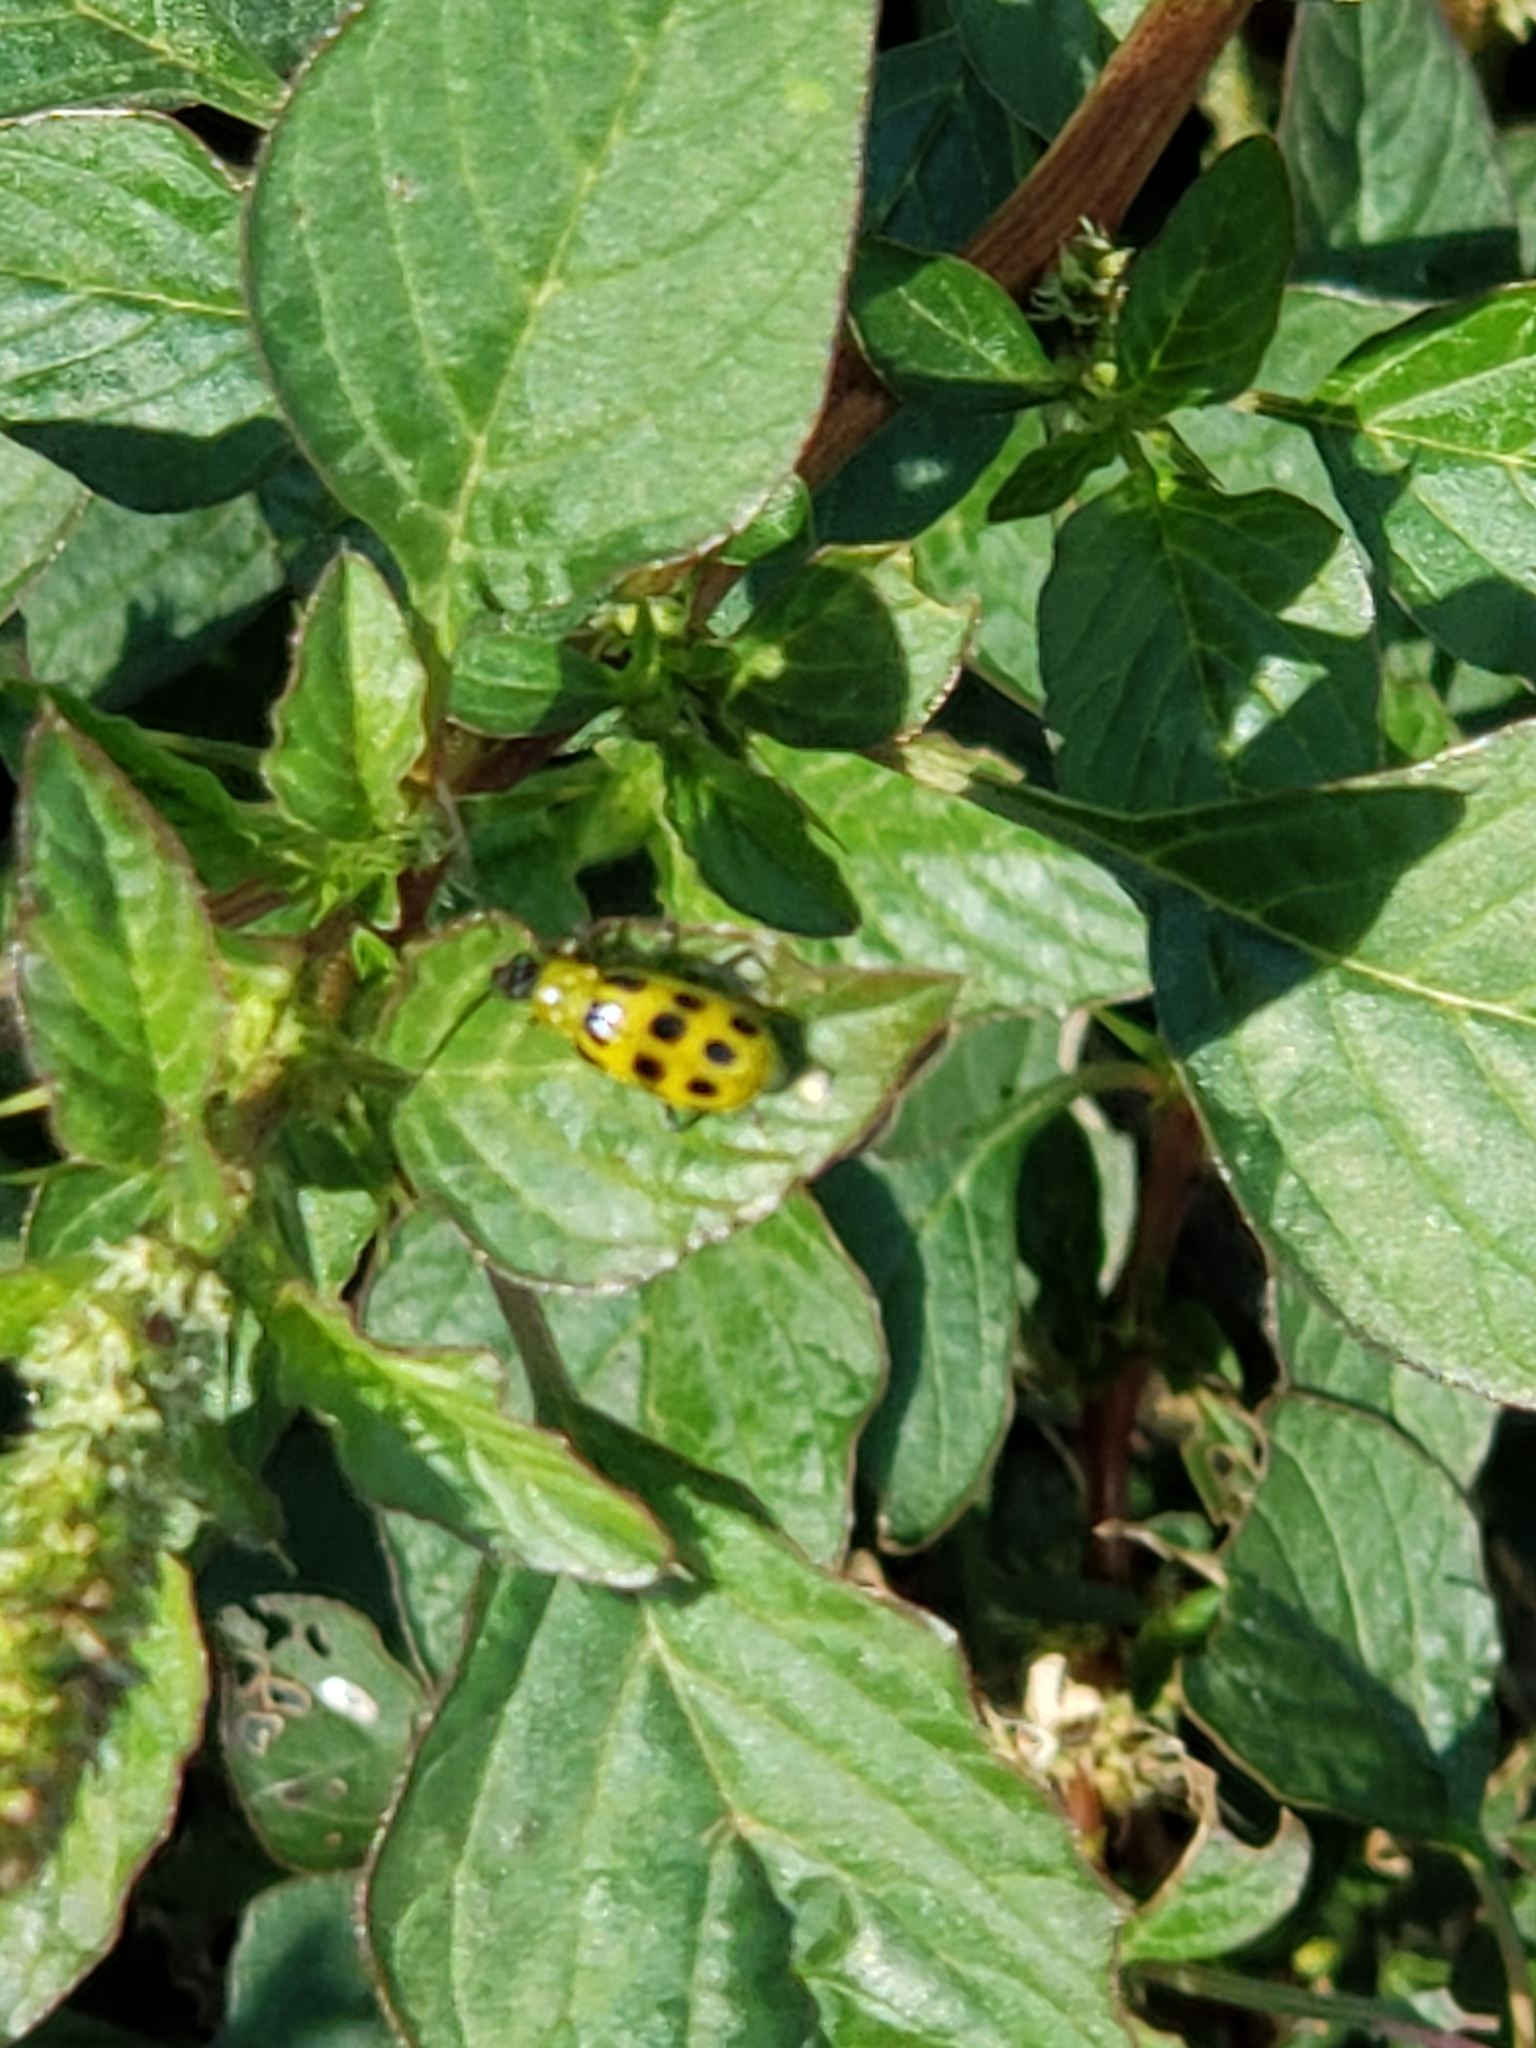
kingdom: Animalia
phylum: Arthropoda
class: Insecta
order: Coleoptera
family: Chrysomelidae
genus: Diabrotica
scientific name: Diabrotica undecimpunctata
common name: Spotted cucumber beetle
